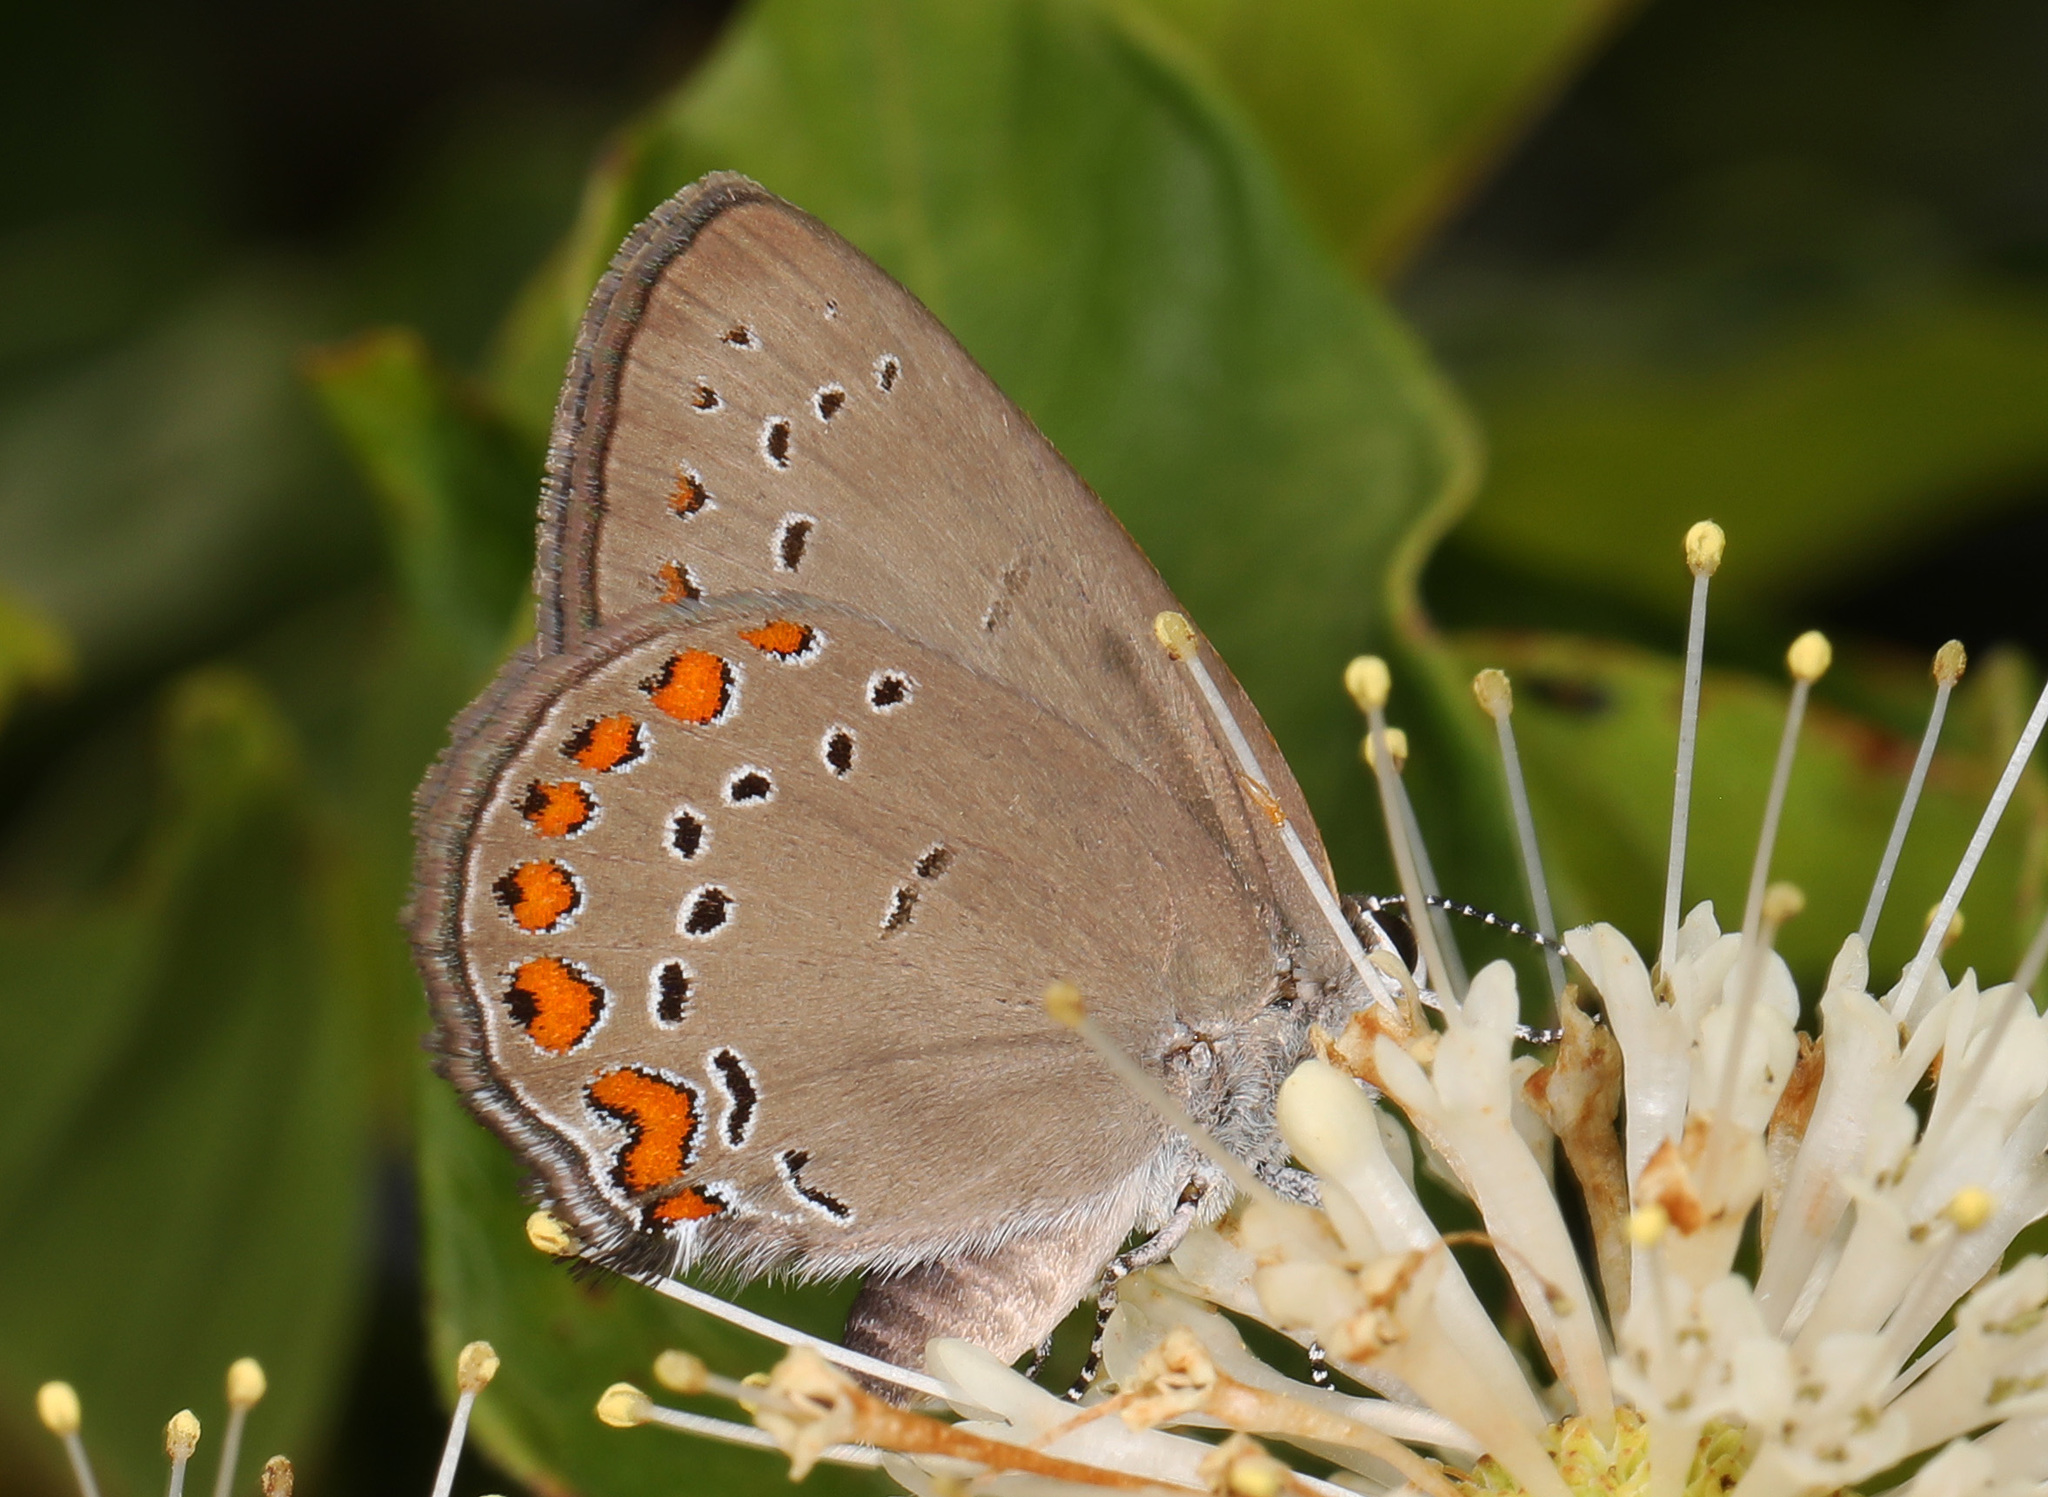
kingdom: Animalia
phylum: Arthropoda
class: Insecta
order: Lepidoptera
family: Lycaenidae
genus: Harkenclenus
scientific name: Harkenclenus titus
